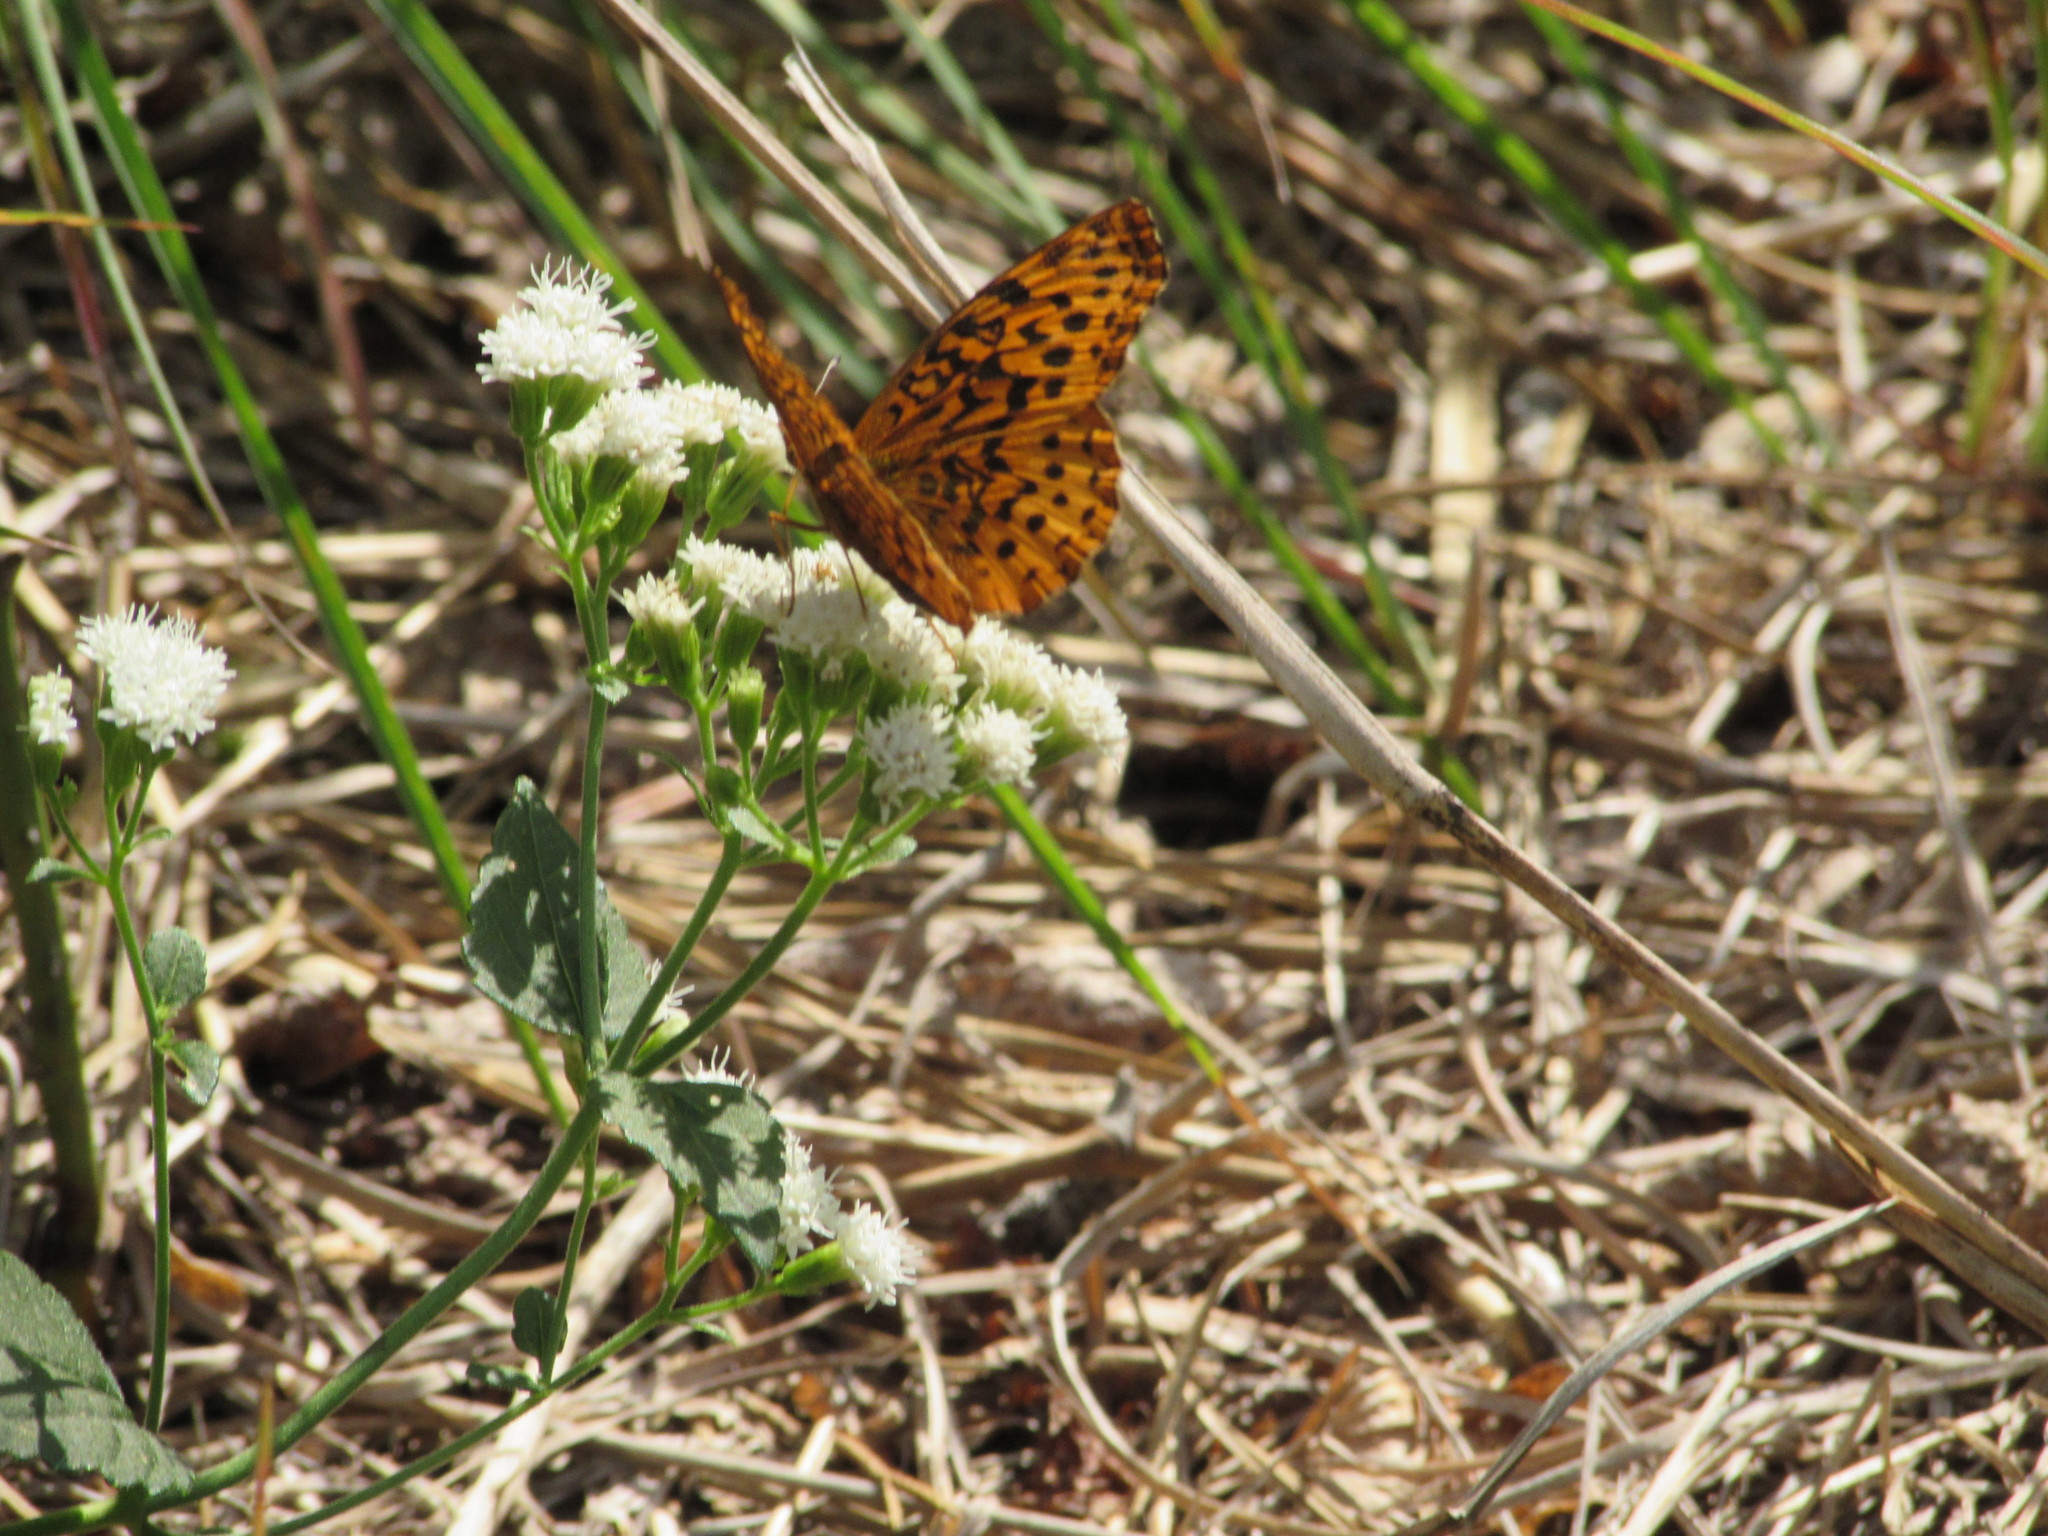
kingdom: Animalia
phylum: Arthropoda
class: Insecta
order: Lepidoptera
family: Nymphalidae
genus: Clossiana
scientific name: Clossiana toddi
